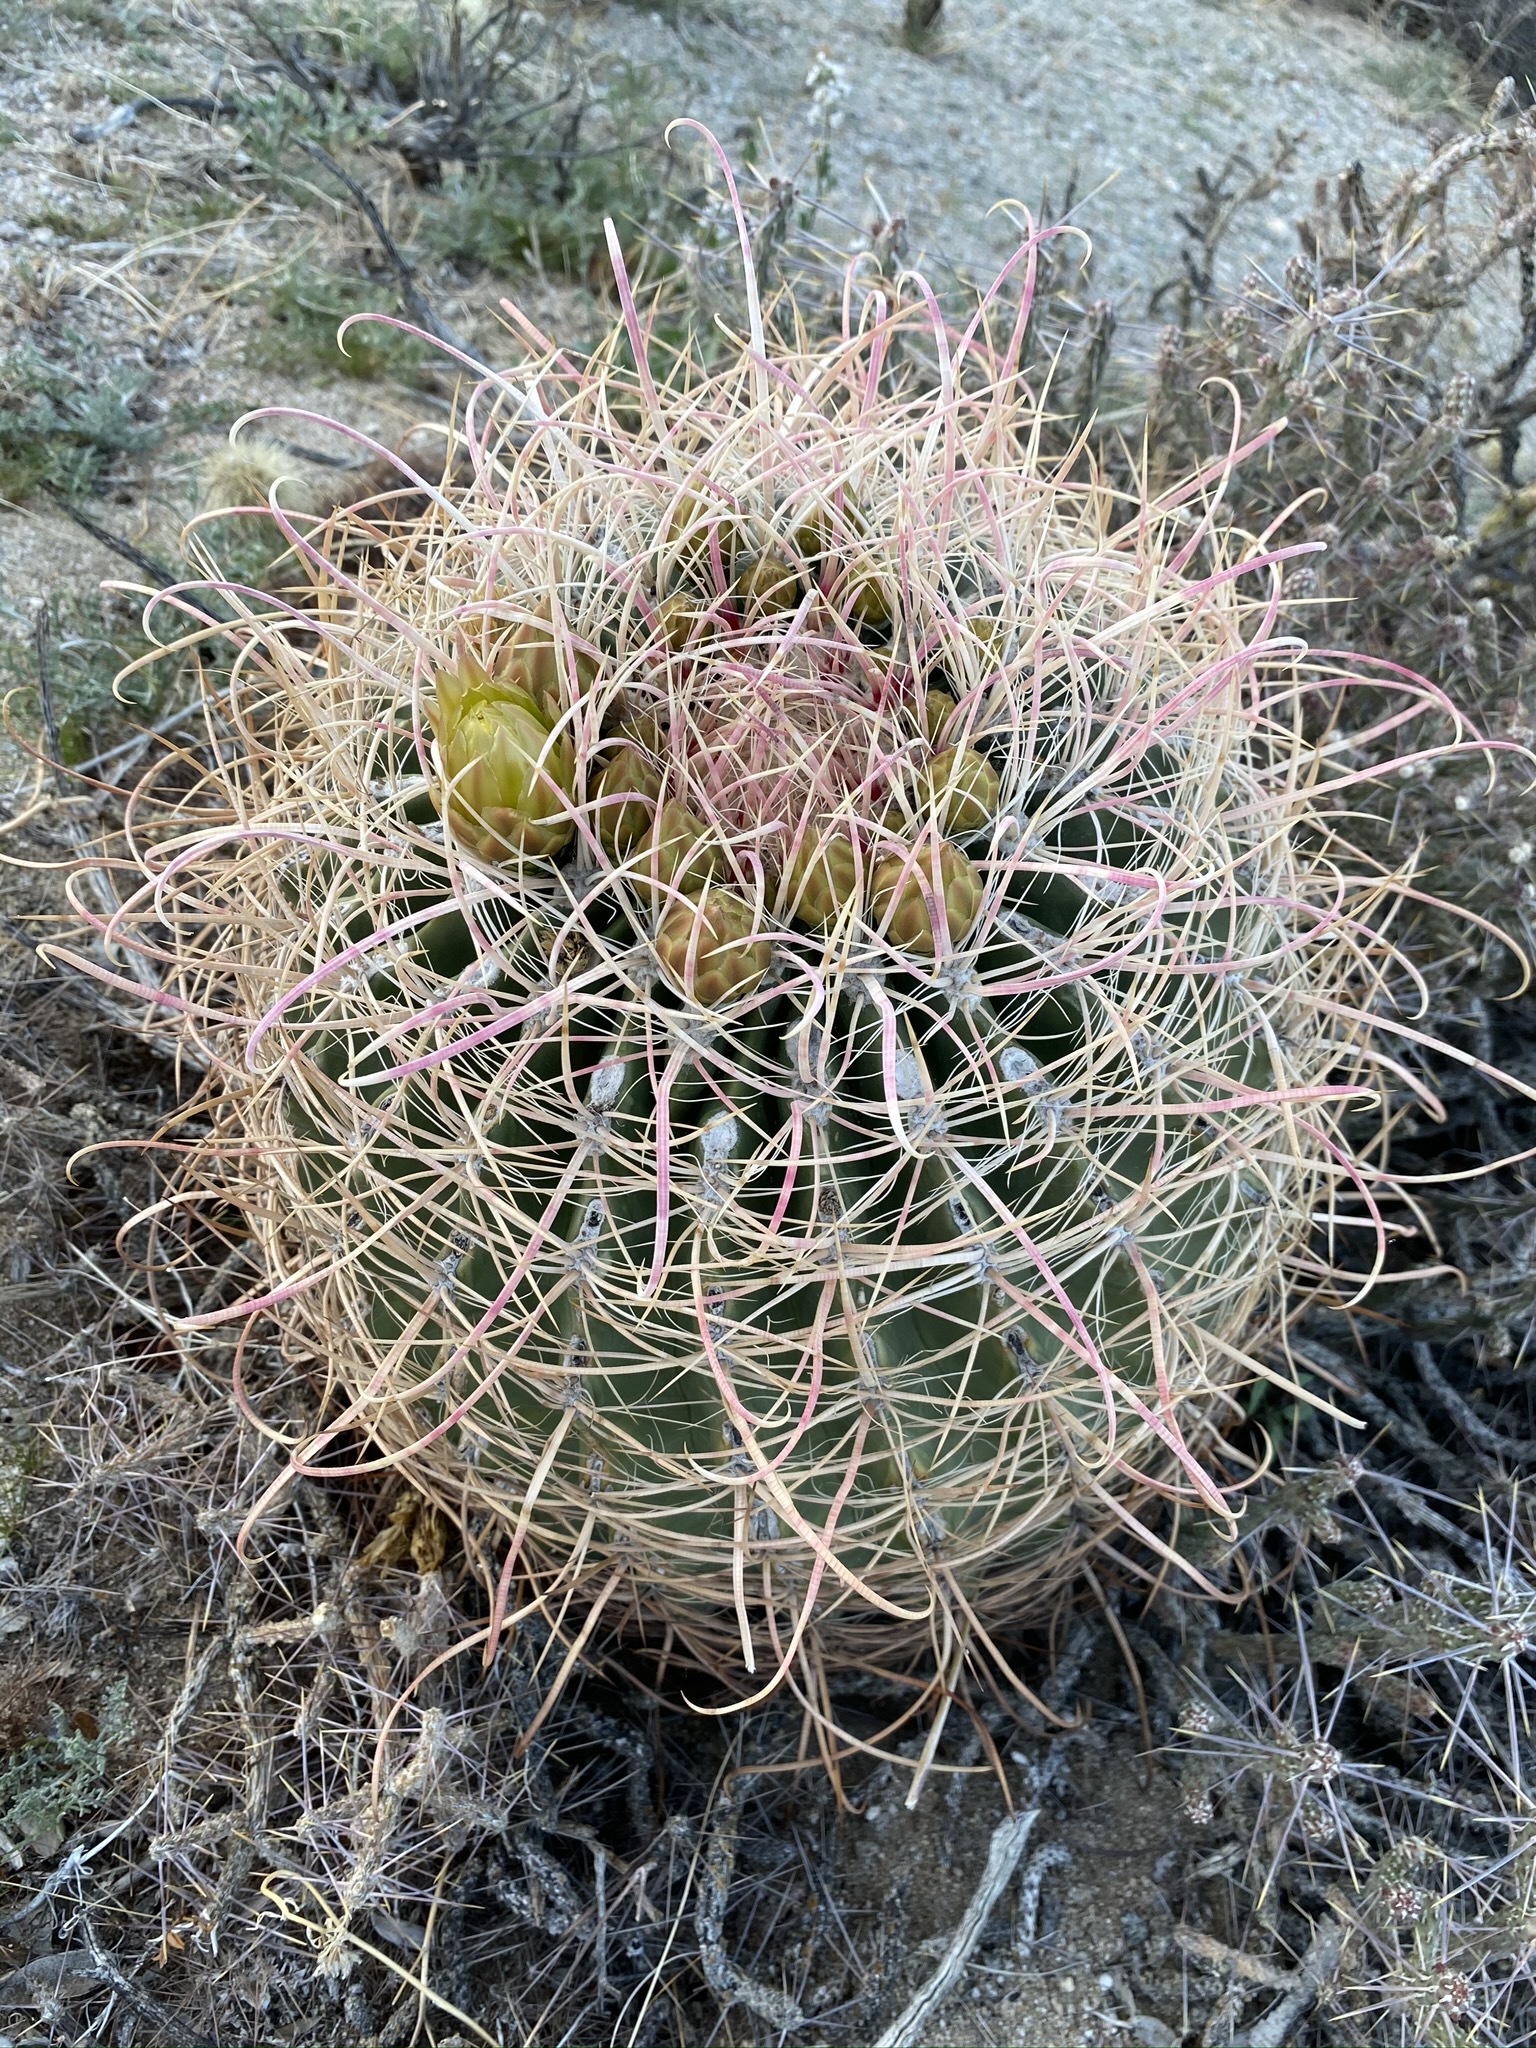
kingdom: Plantae
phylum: Tracheophyta
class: Magnoliopsida
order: Caryophyllales
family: Cactaceae
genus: Ferocactus
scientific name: Ferocactus cylindraceus
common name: California barrel cactus
